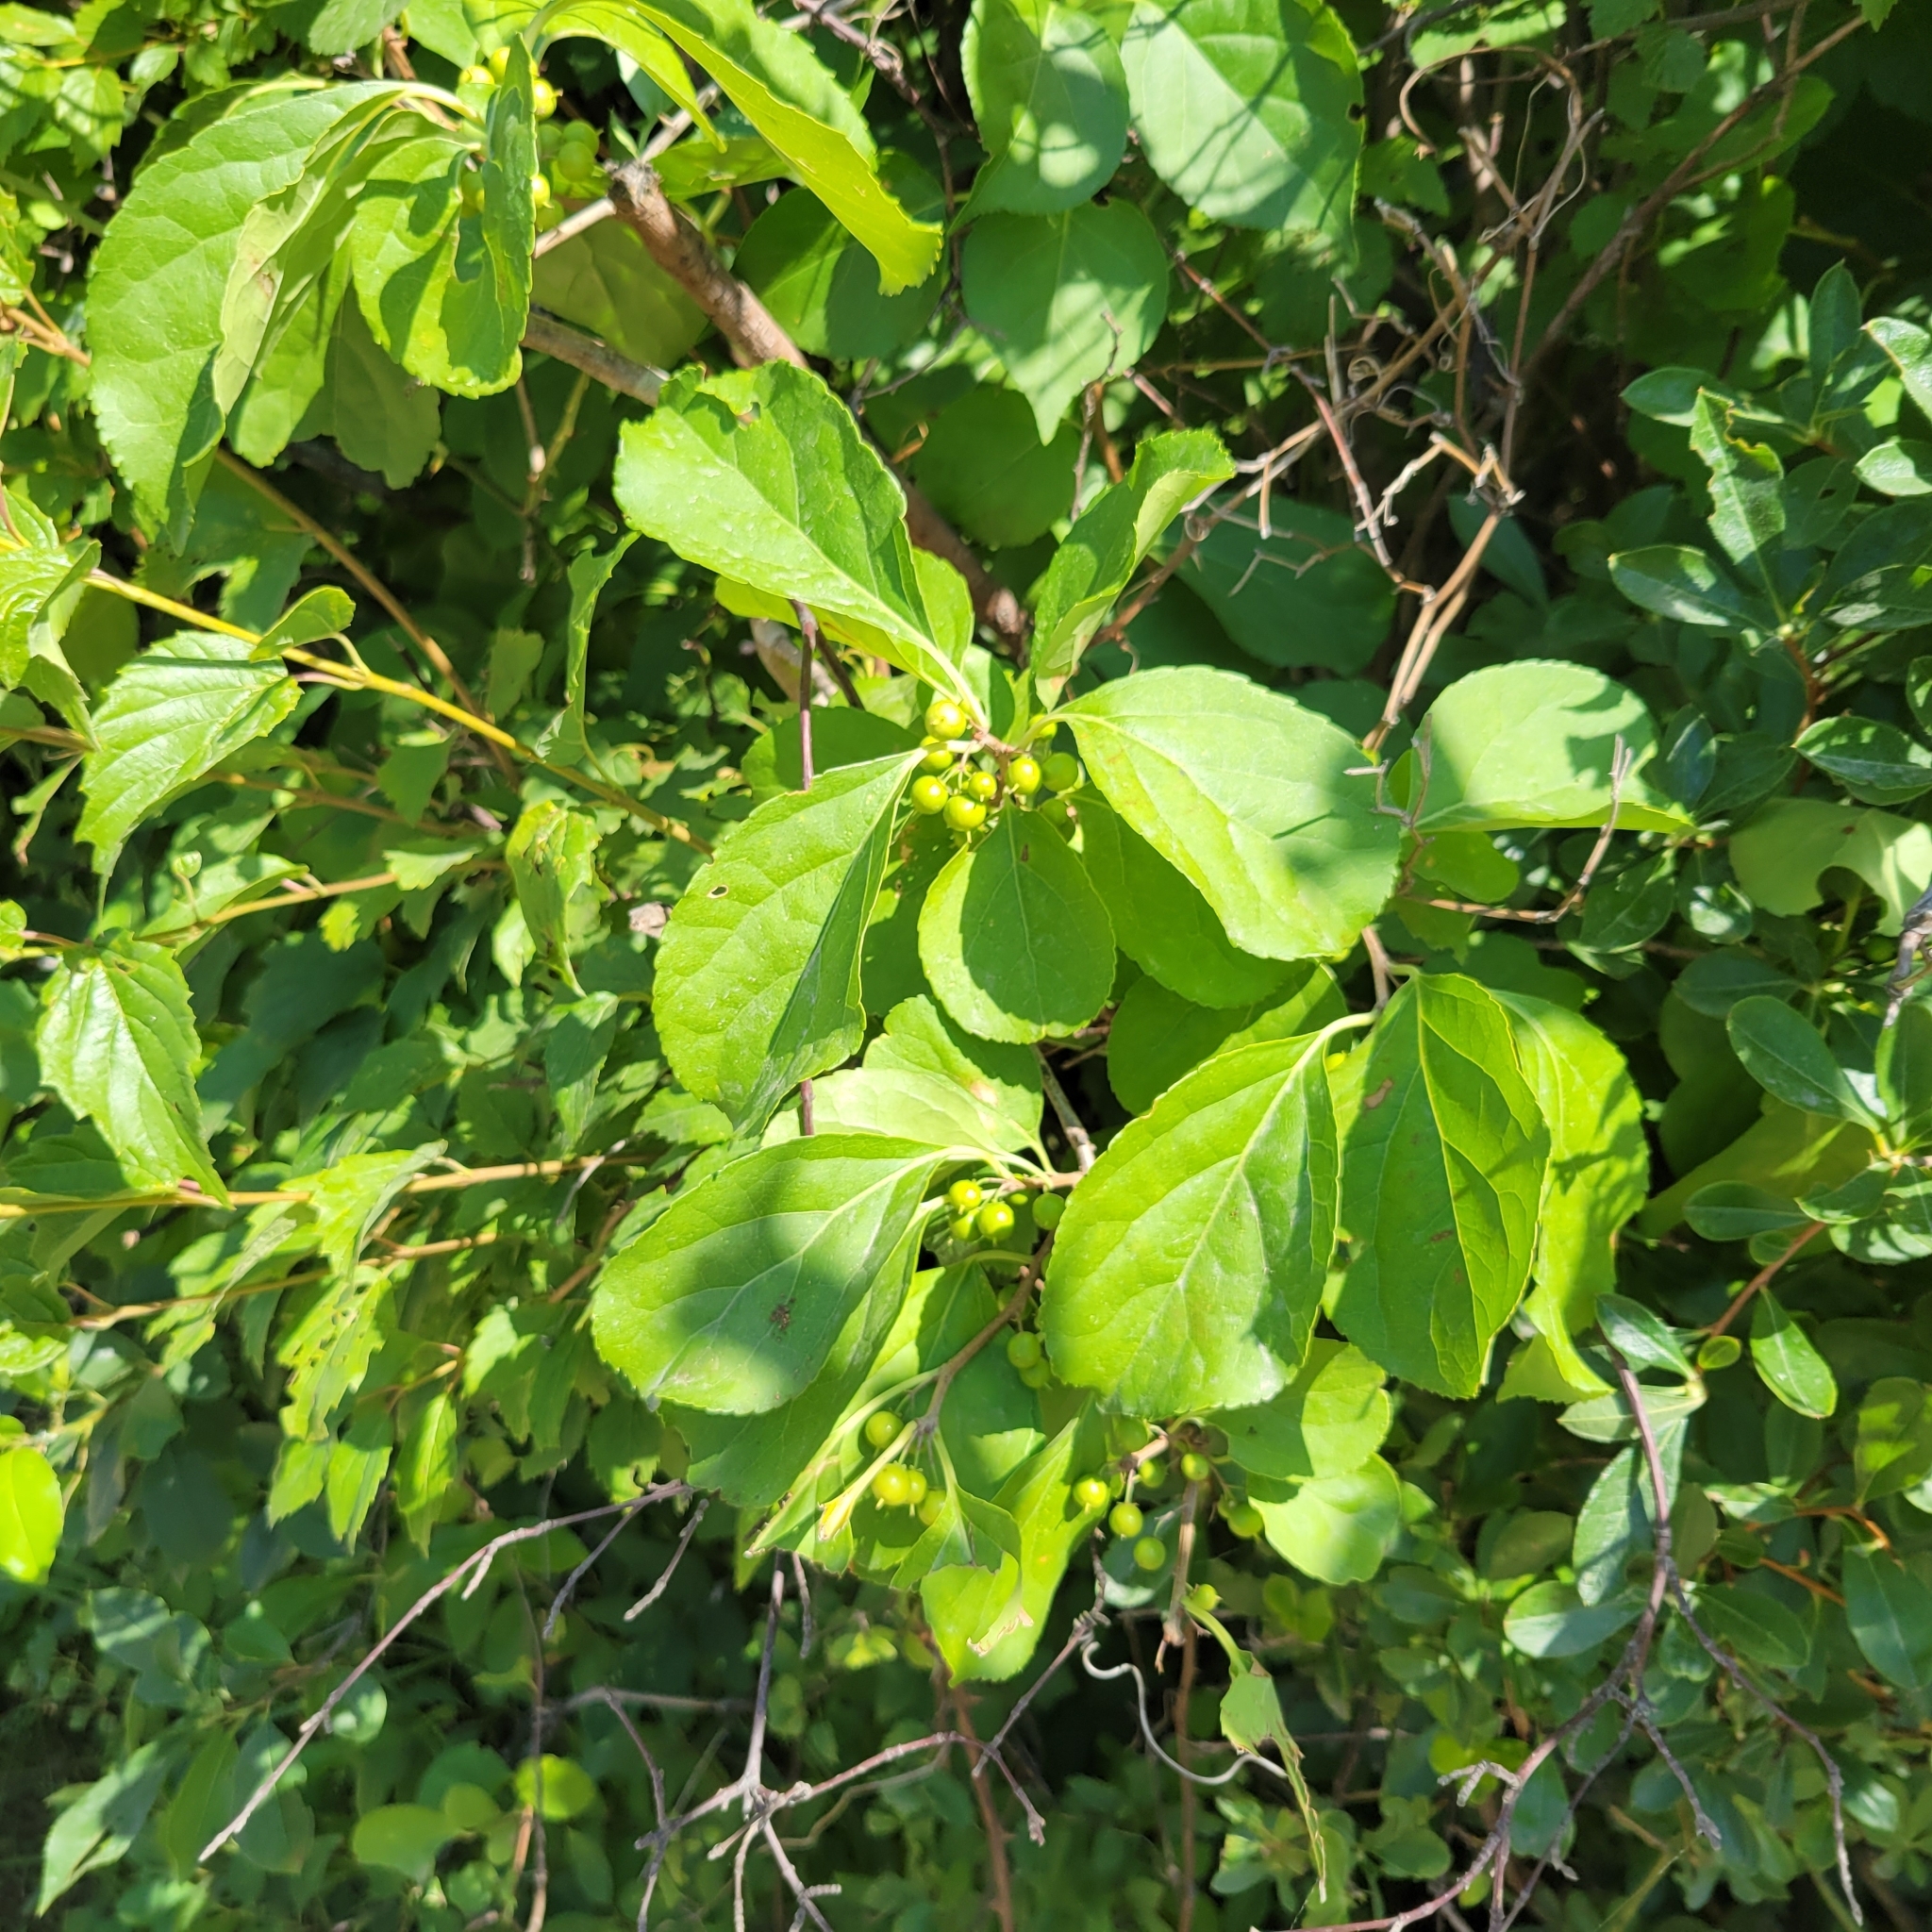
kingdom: Plantae
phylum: Tracheophyta
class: Magnoliopsida
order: Celastrales
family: Celastraceae
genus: Celastrus
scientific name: Celastrus orbiculatus
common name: Oriental bittersweet
